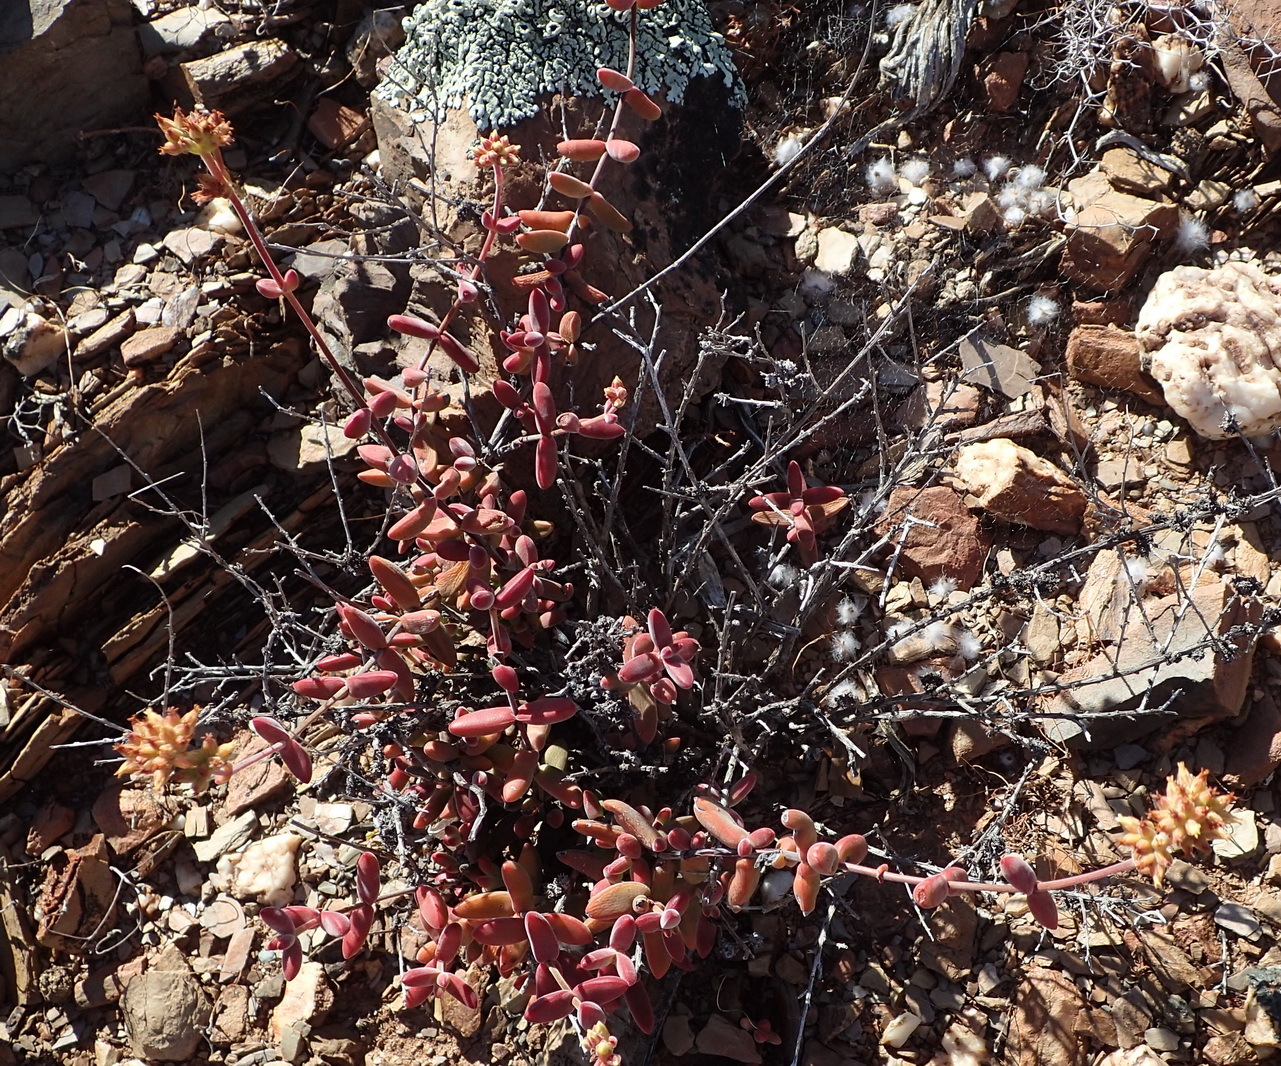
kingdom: Plantae
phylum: Tracheophyta
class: Magnoliopsida
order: Saxifragales
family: Crassulaceae
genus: Crassula
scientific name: Crassula subaphylla
